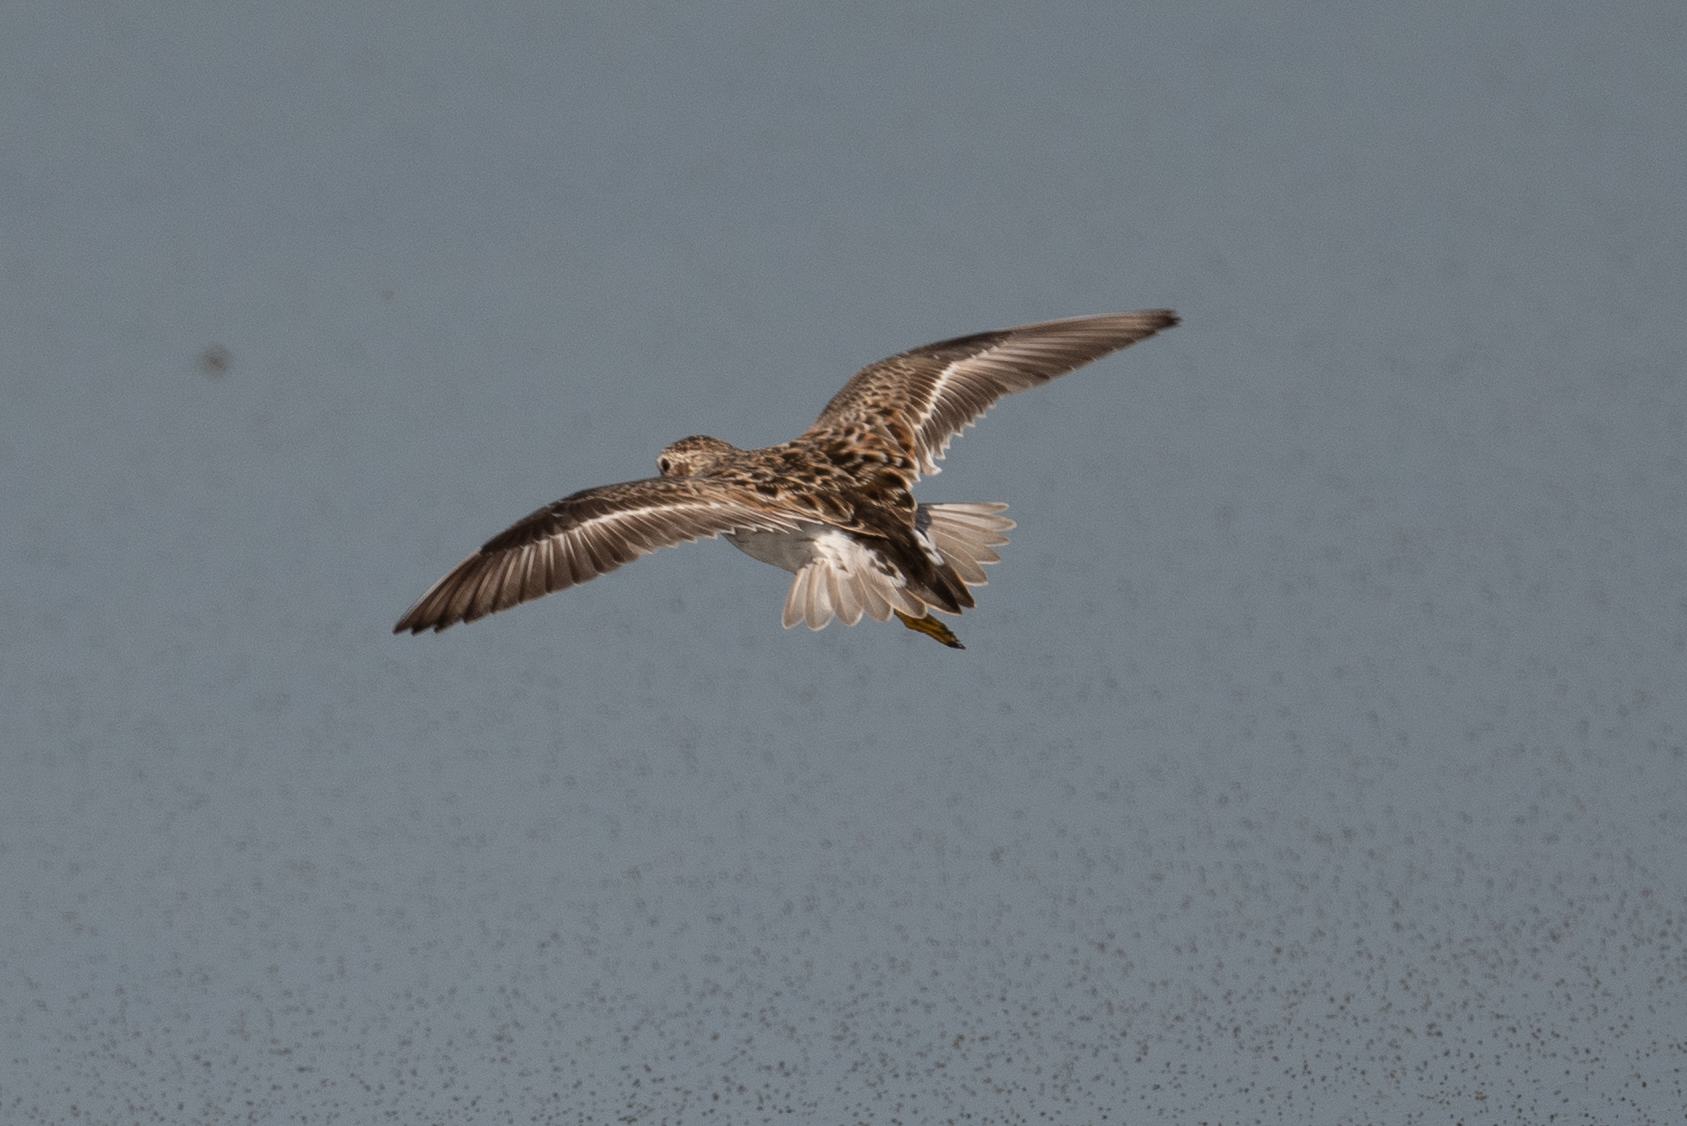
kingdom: Animalia
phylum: Chordata
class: Aves
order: Charadriiformes
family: Scolopacidae
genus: Calidris
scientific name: Calidris minutilla
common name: Least sandpiper
